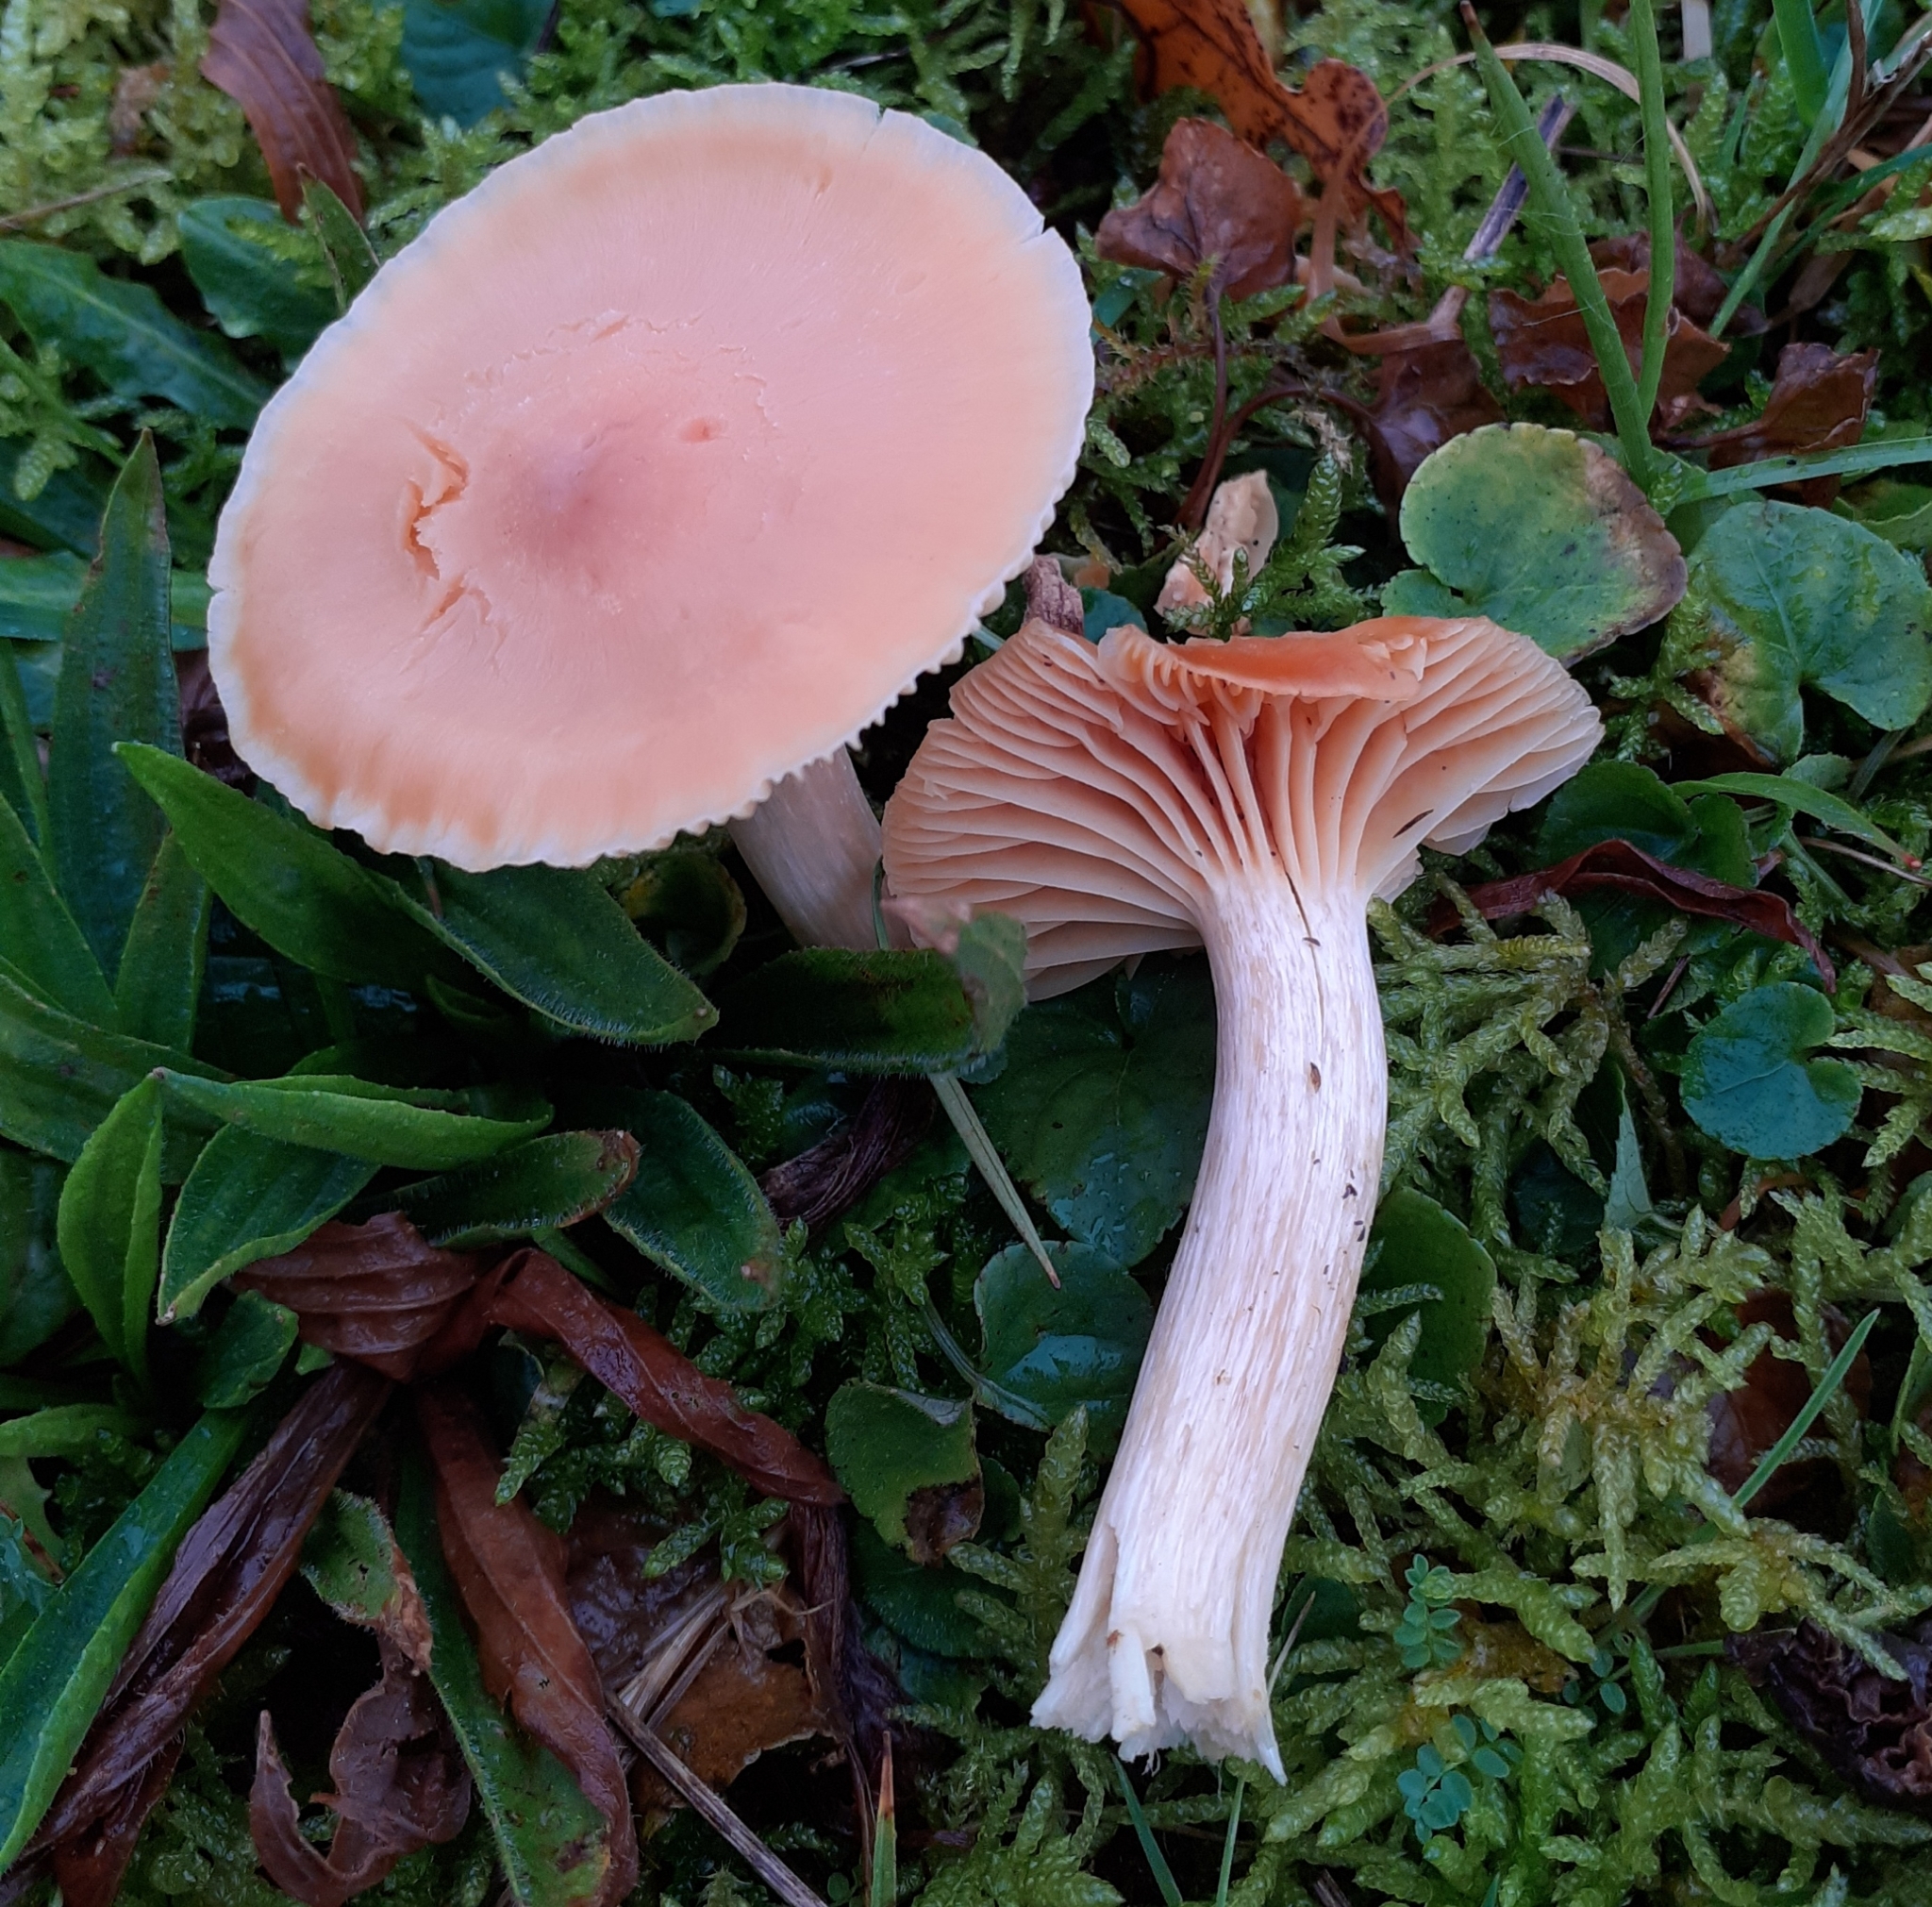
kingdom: Fungi
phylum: Basidiomycota
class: Agaricomycetes
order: Agaricales
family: Hygrophoraceae
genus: Cuphophyllus
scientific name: Cuphophyllus pratensis
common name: Meadow waxcap
